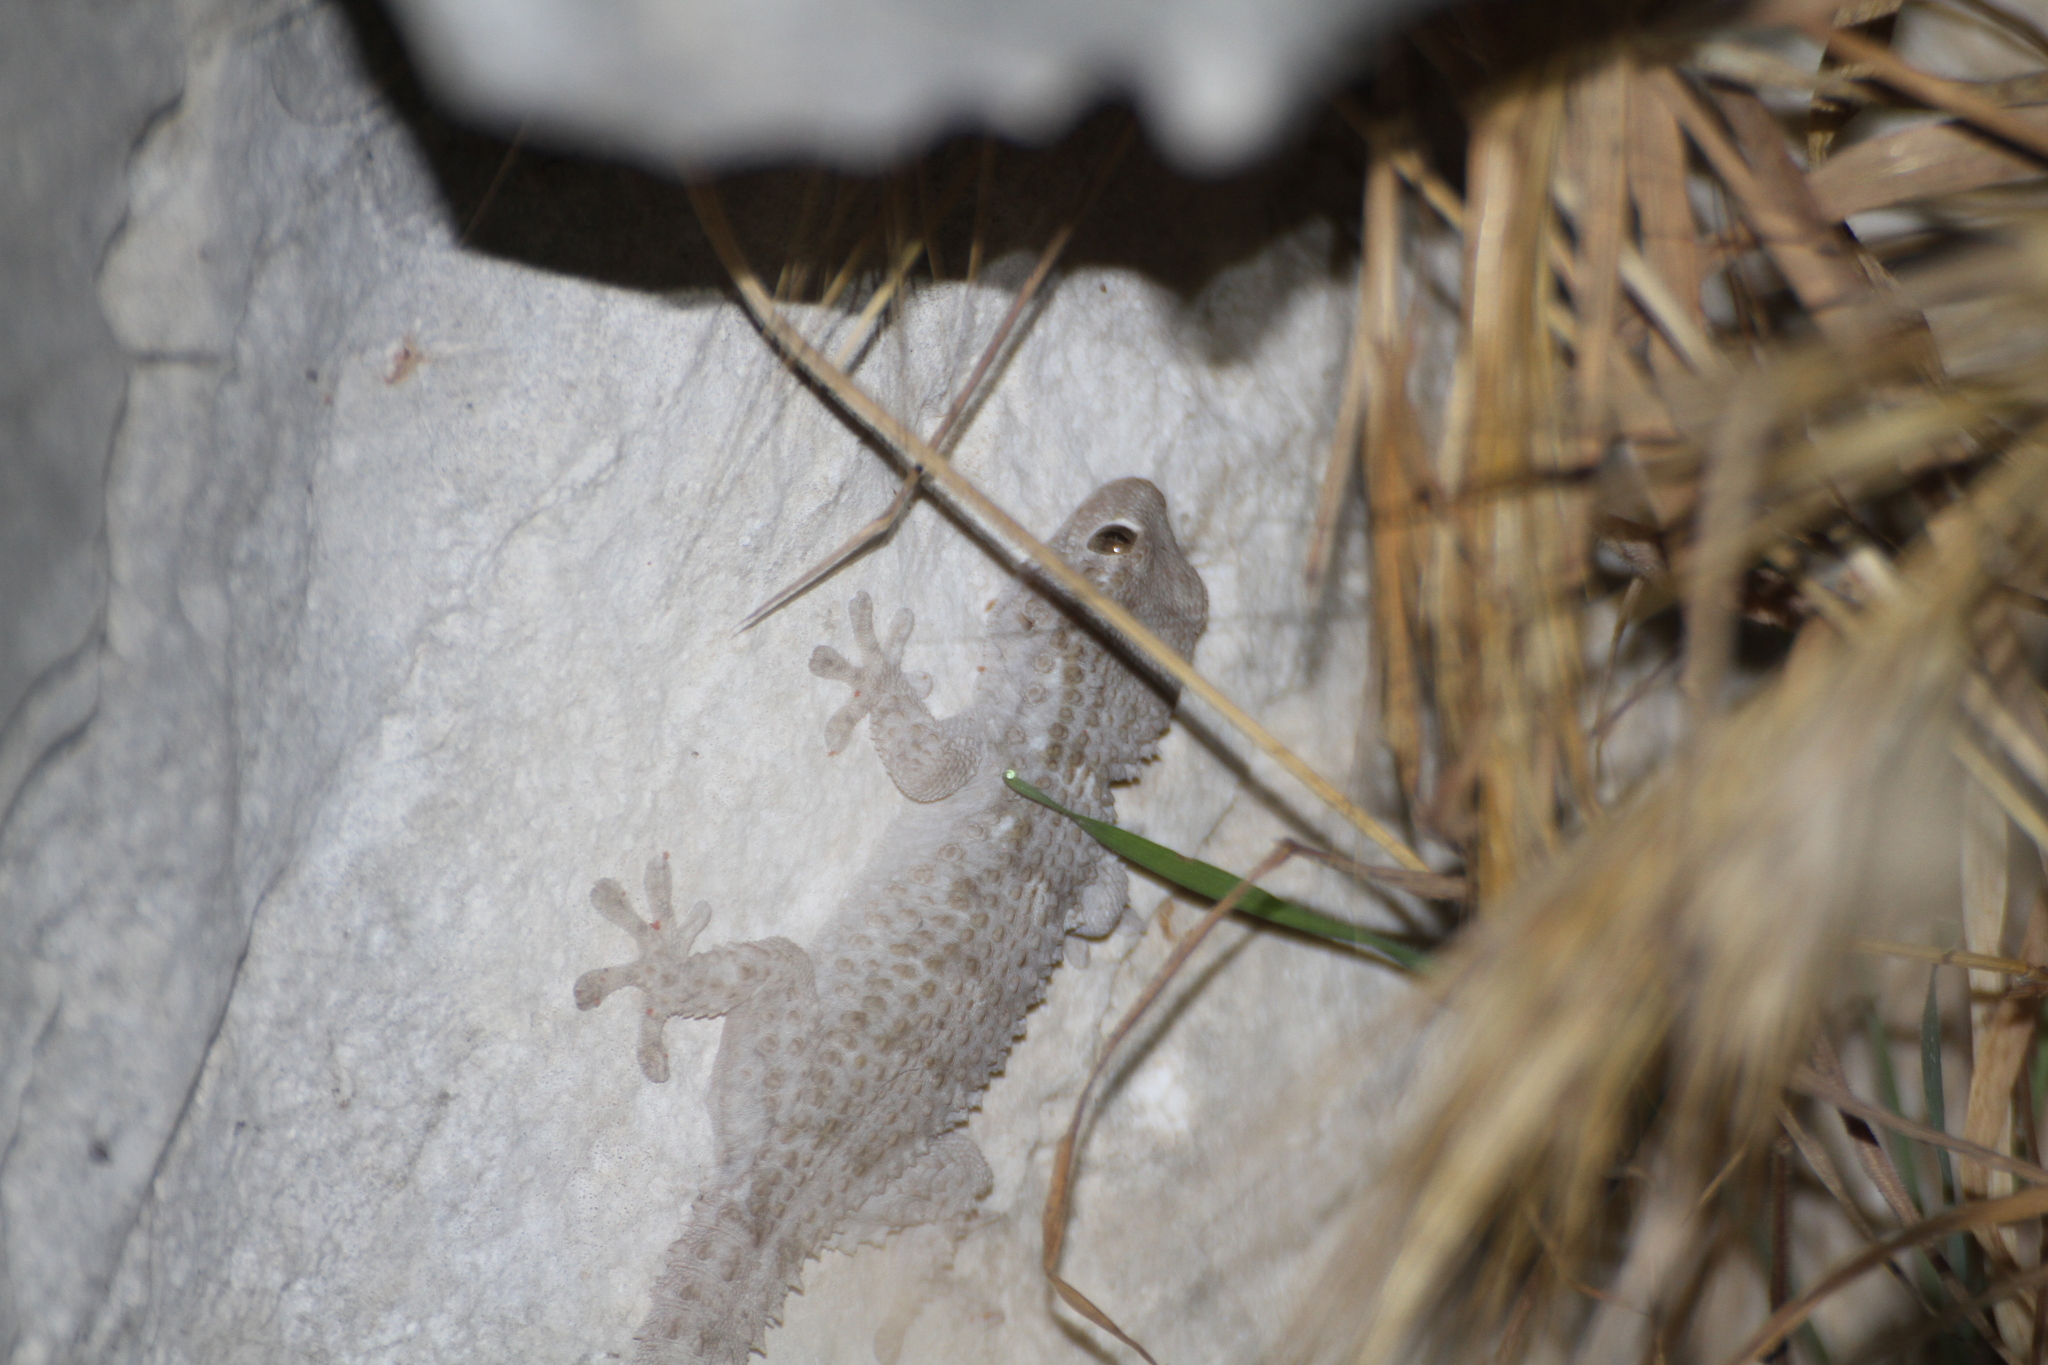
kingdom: Animalia
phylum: Chordata
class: Squamata
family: Phyllodactylidae
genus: Tarentola
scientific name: Tarentola mauritanica
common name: Moorish gecko
